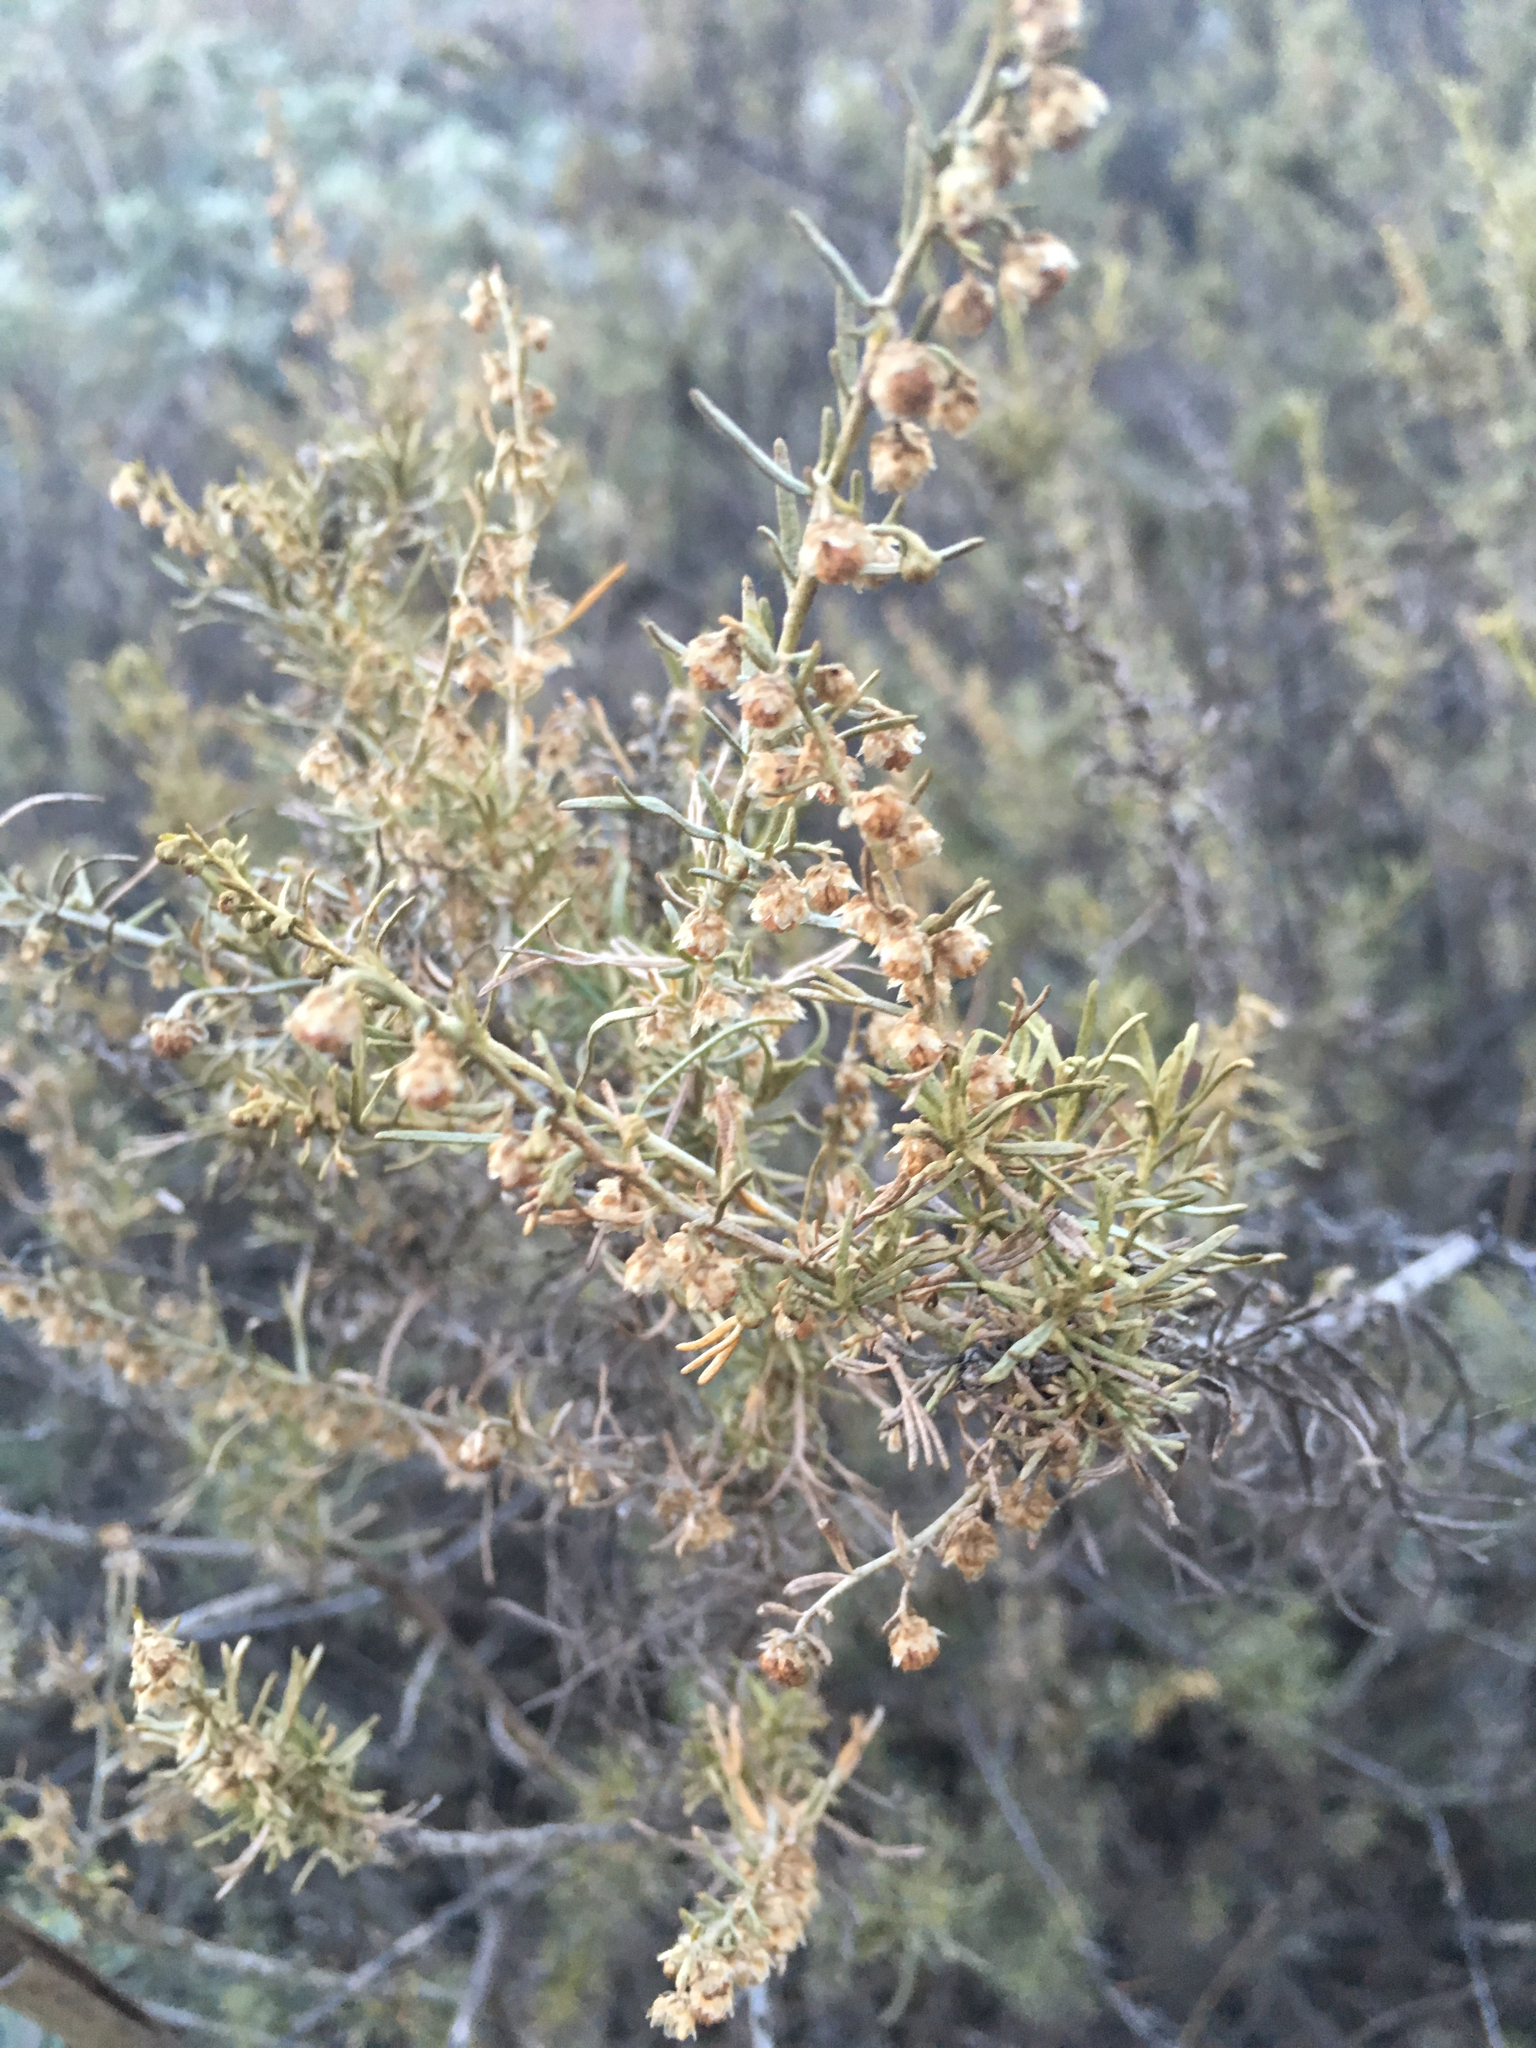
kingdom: Plantae
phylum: Tracheophyta
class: Magnoliopsida
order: Asterales
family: Asteraceae
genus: Artemisia
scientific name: Artemisia californica
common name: California sagebrush
